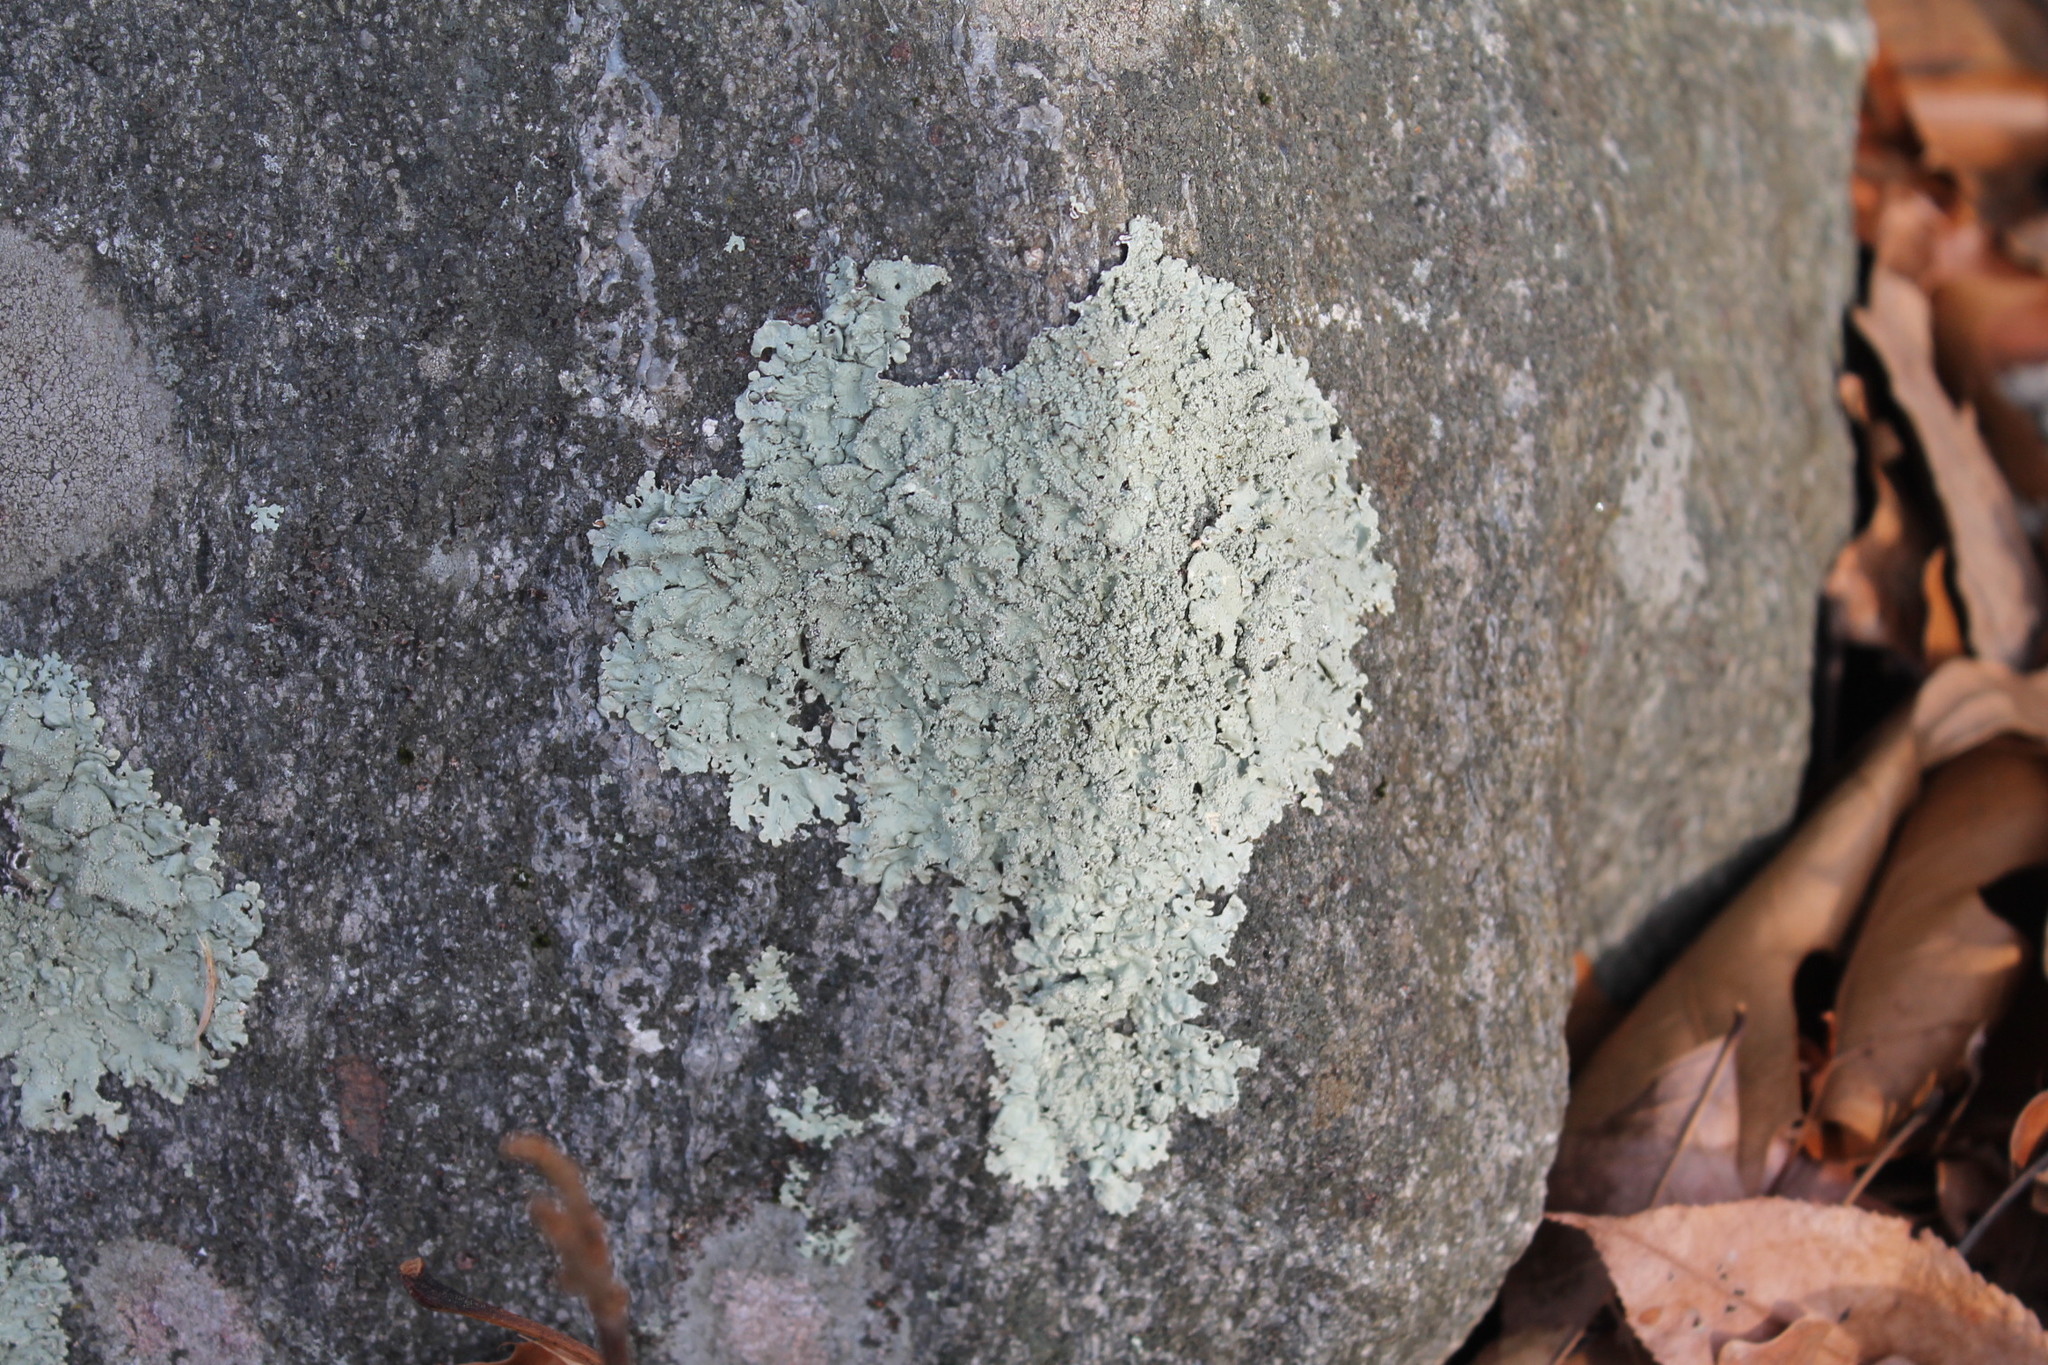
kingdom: Fungi
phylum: Ascomycota
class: Lecanoromycetes
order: Lecanorales
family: Parmeliaceae
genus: Flavoparmelia
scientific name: Flavoparmelia baltimorensis
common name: Rock greenshield
